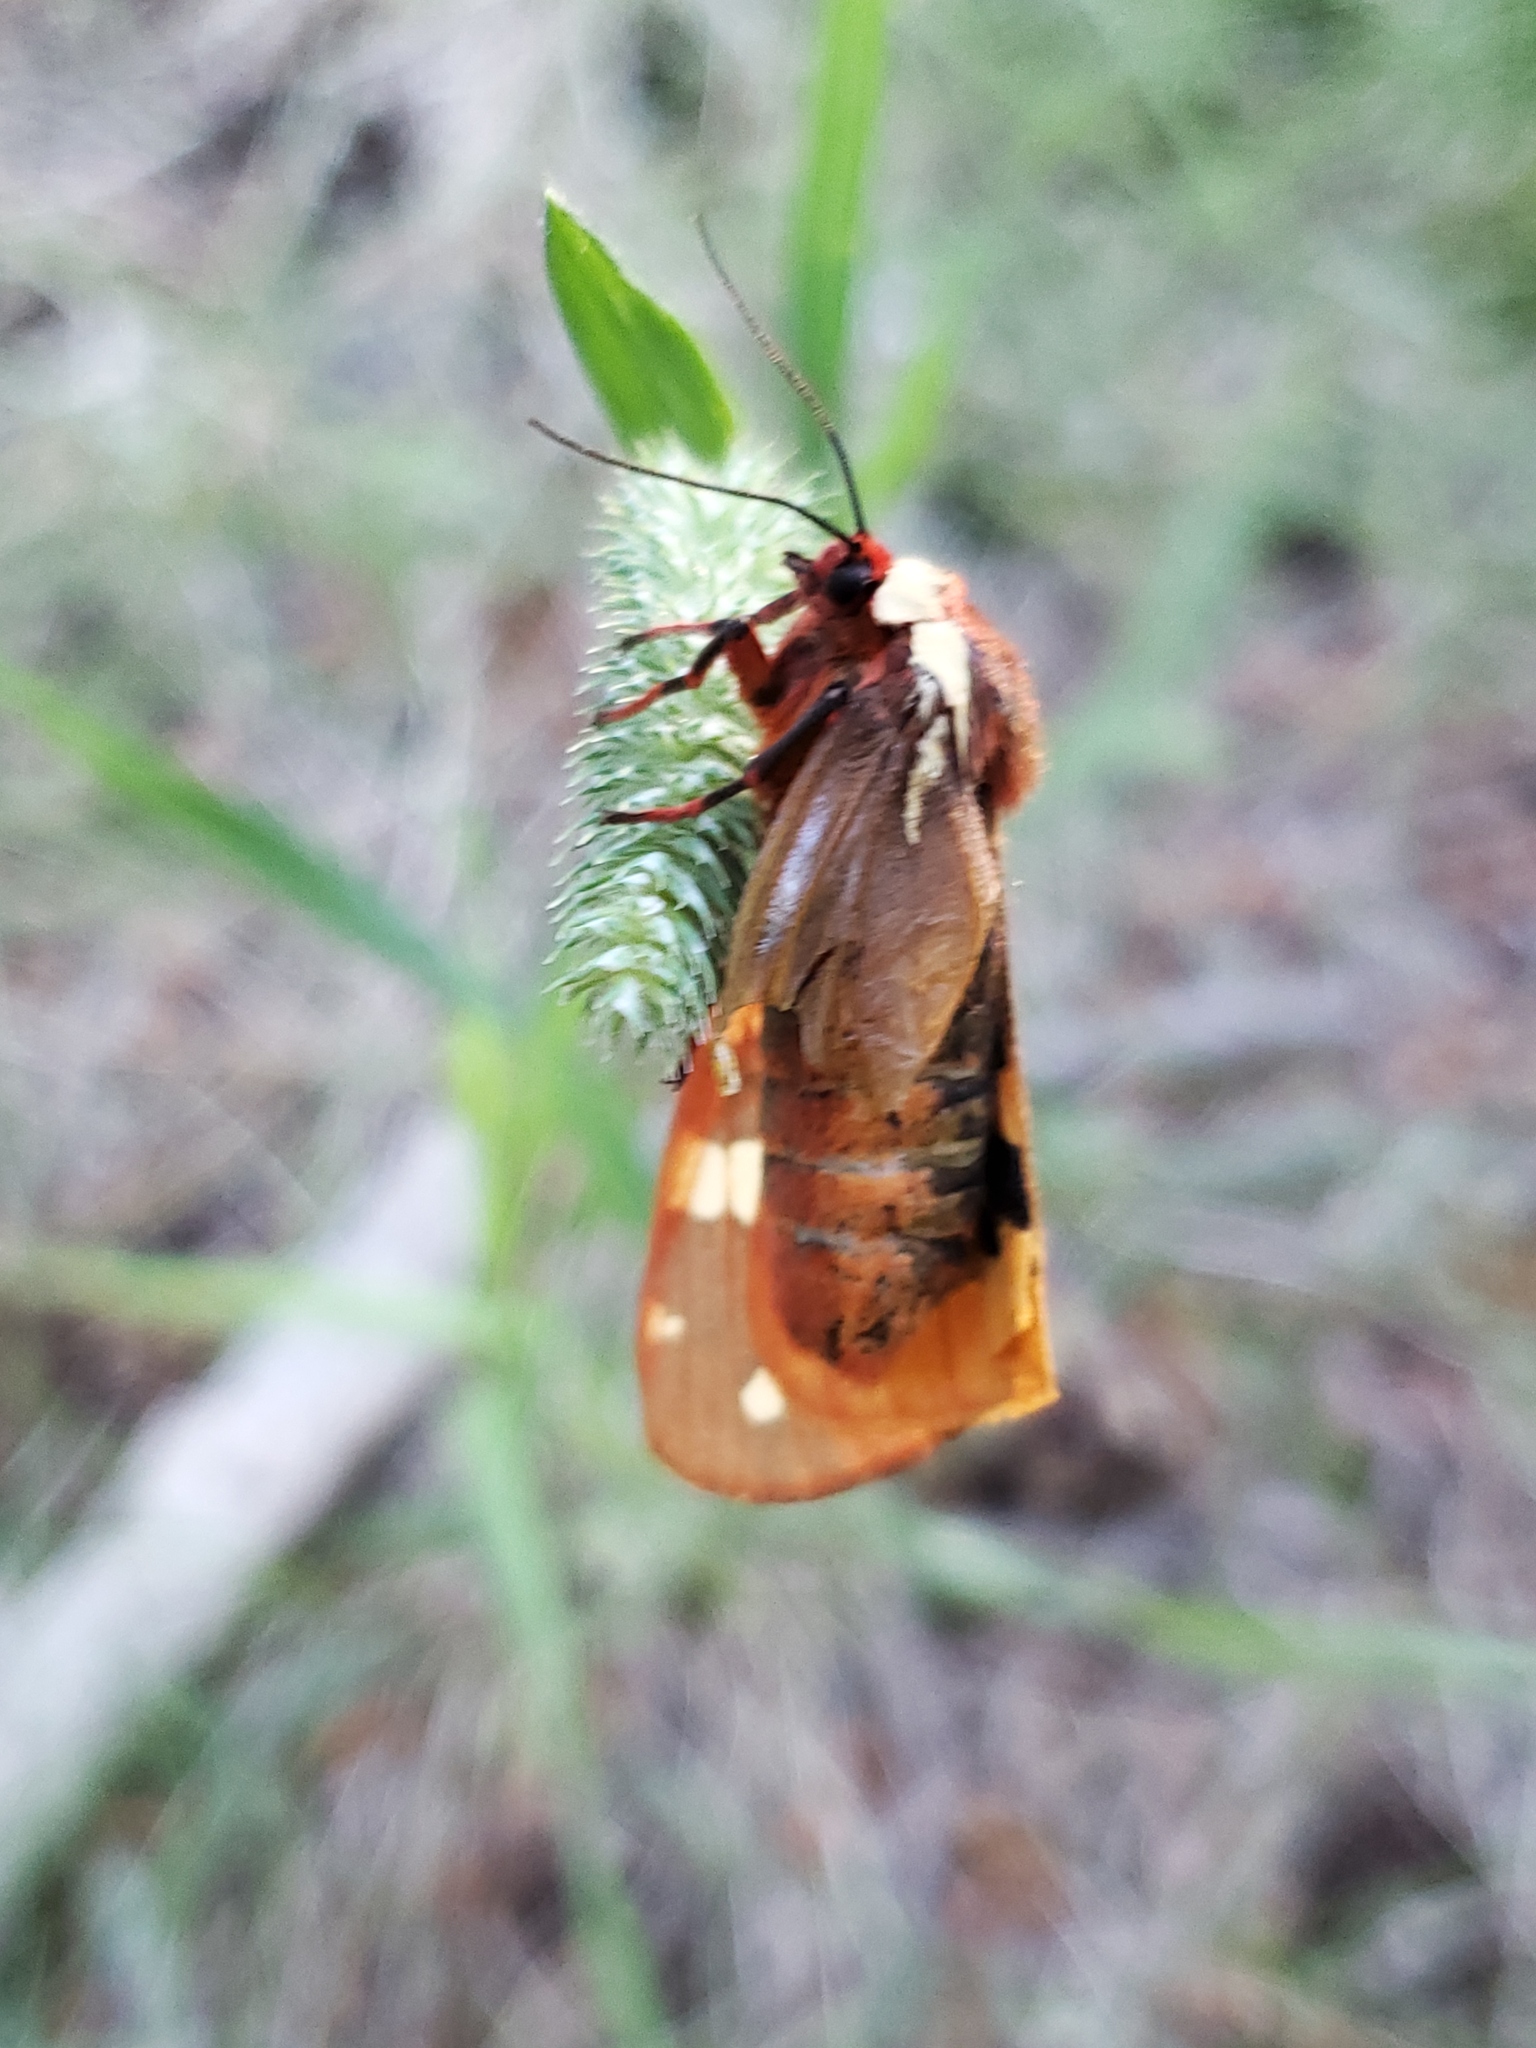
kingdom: Animalia
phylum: Arthropoda
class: Insecta
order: Lepidoptera
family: Erebidae
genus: Arctia
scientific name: Arctia parthenos
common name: St. lawrence tiger moth
